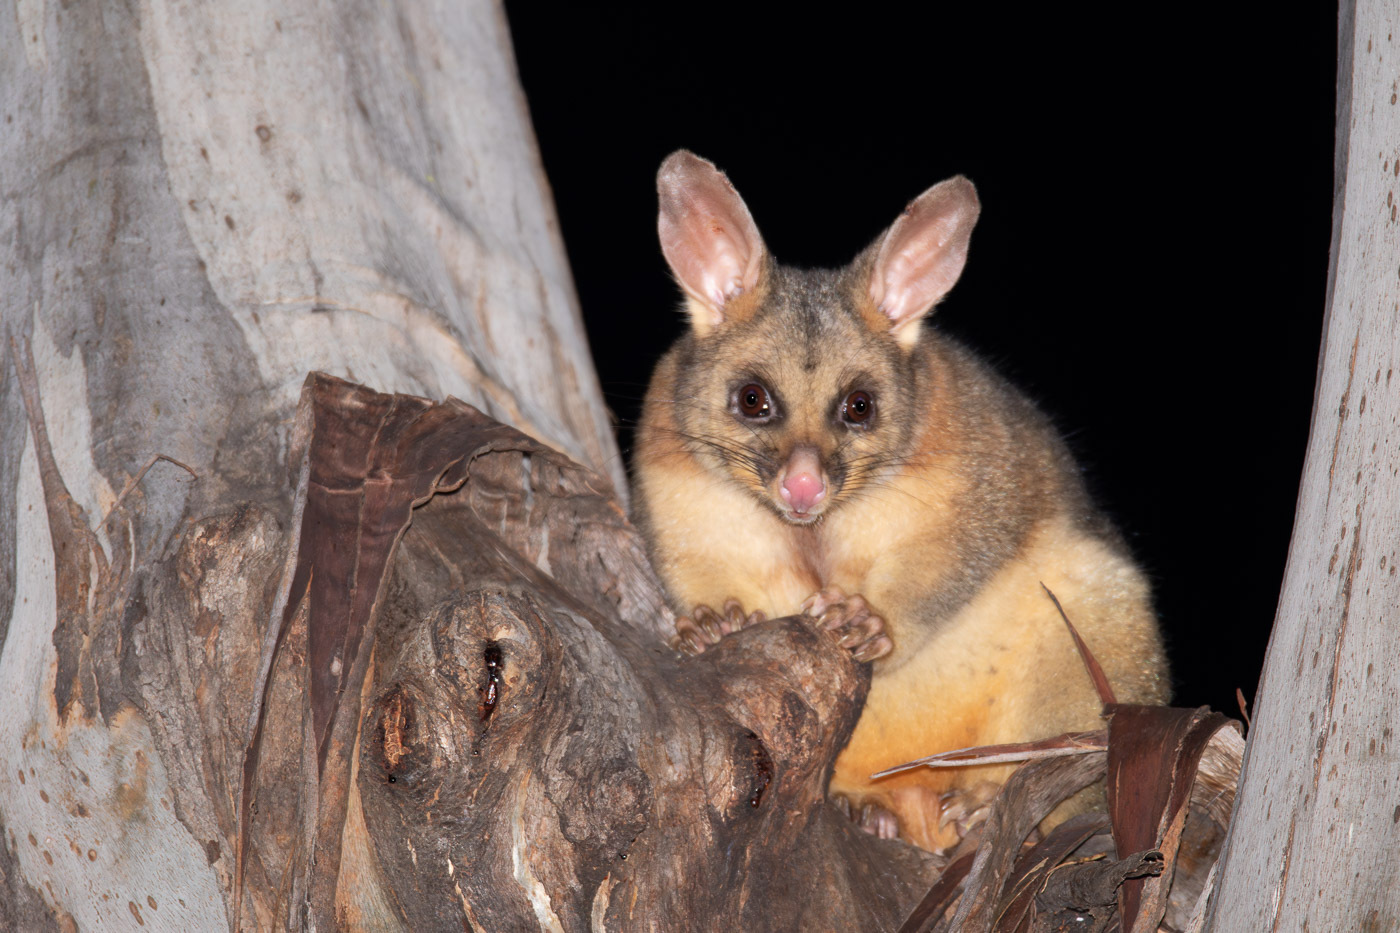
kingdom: Animalia
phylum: Chordata
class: Mammalia
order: Diprotodontia
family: Phalangeridae
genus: Trichosurus
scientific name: Trichosurus vulpecula
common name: Common brushtail
